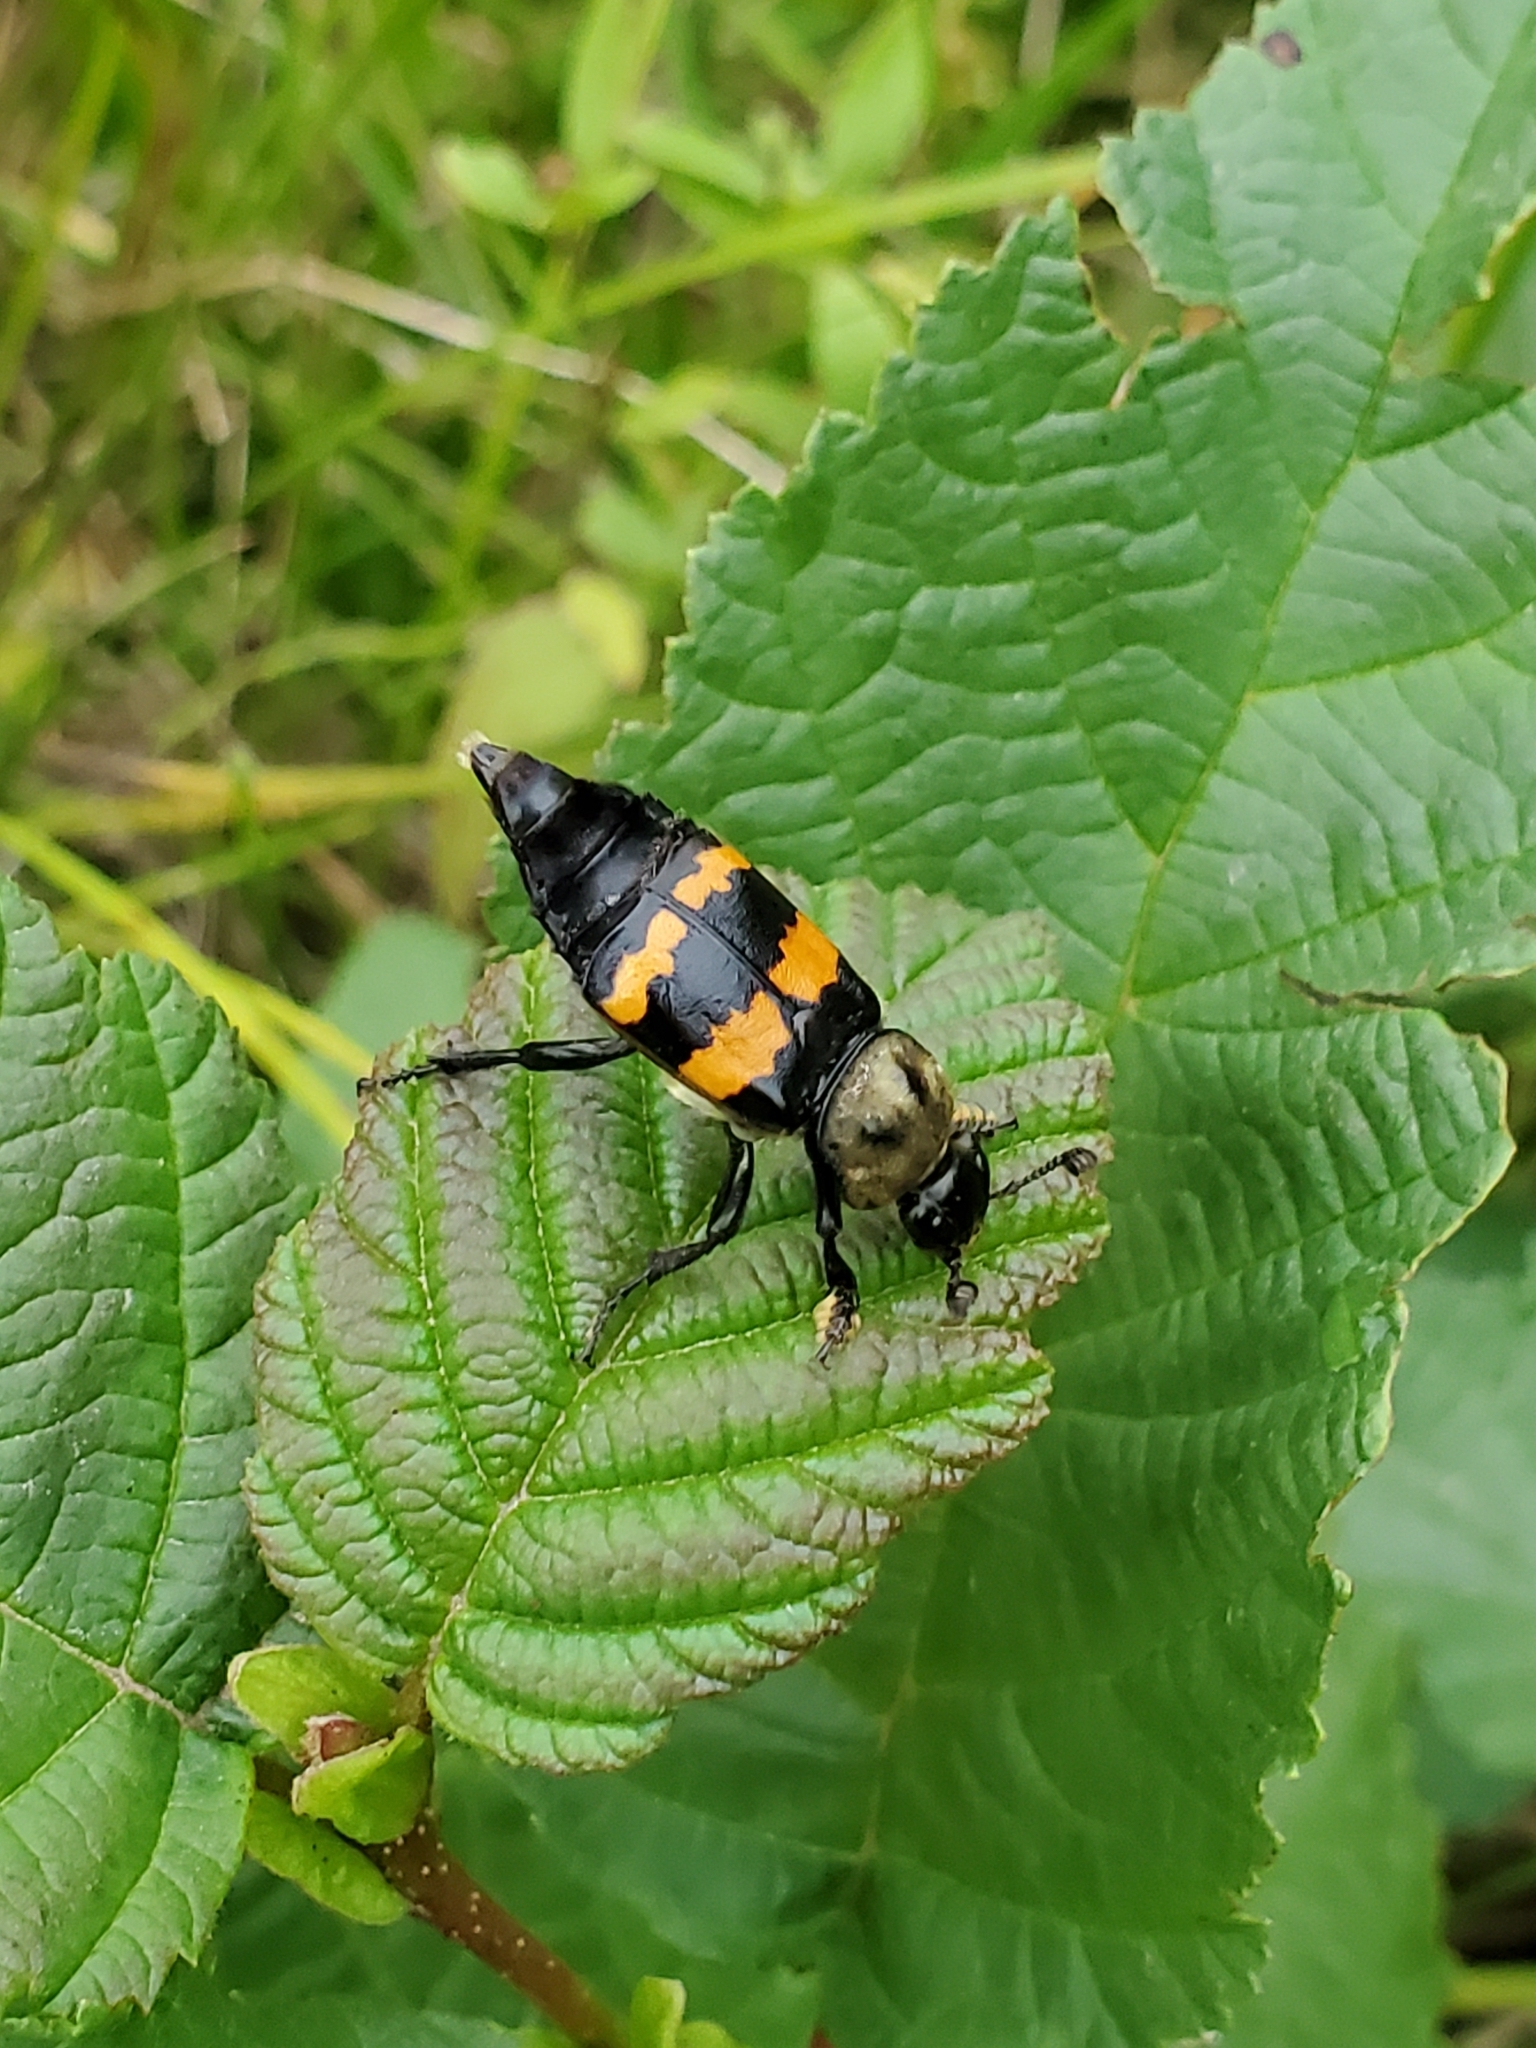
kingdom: Animalia
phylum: Arthropoda
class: Insecta
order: Coleoptera
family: Staphylinidae
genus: Nicrophorus
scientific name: Nicrophorus tomentosus
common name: Tomentose burying beetle
